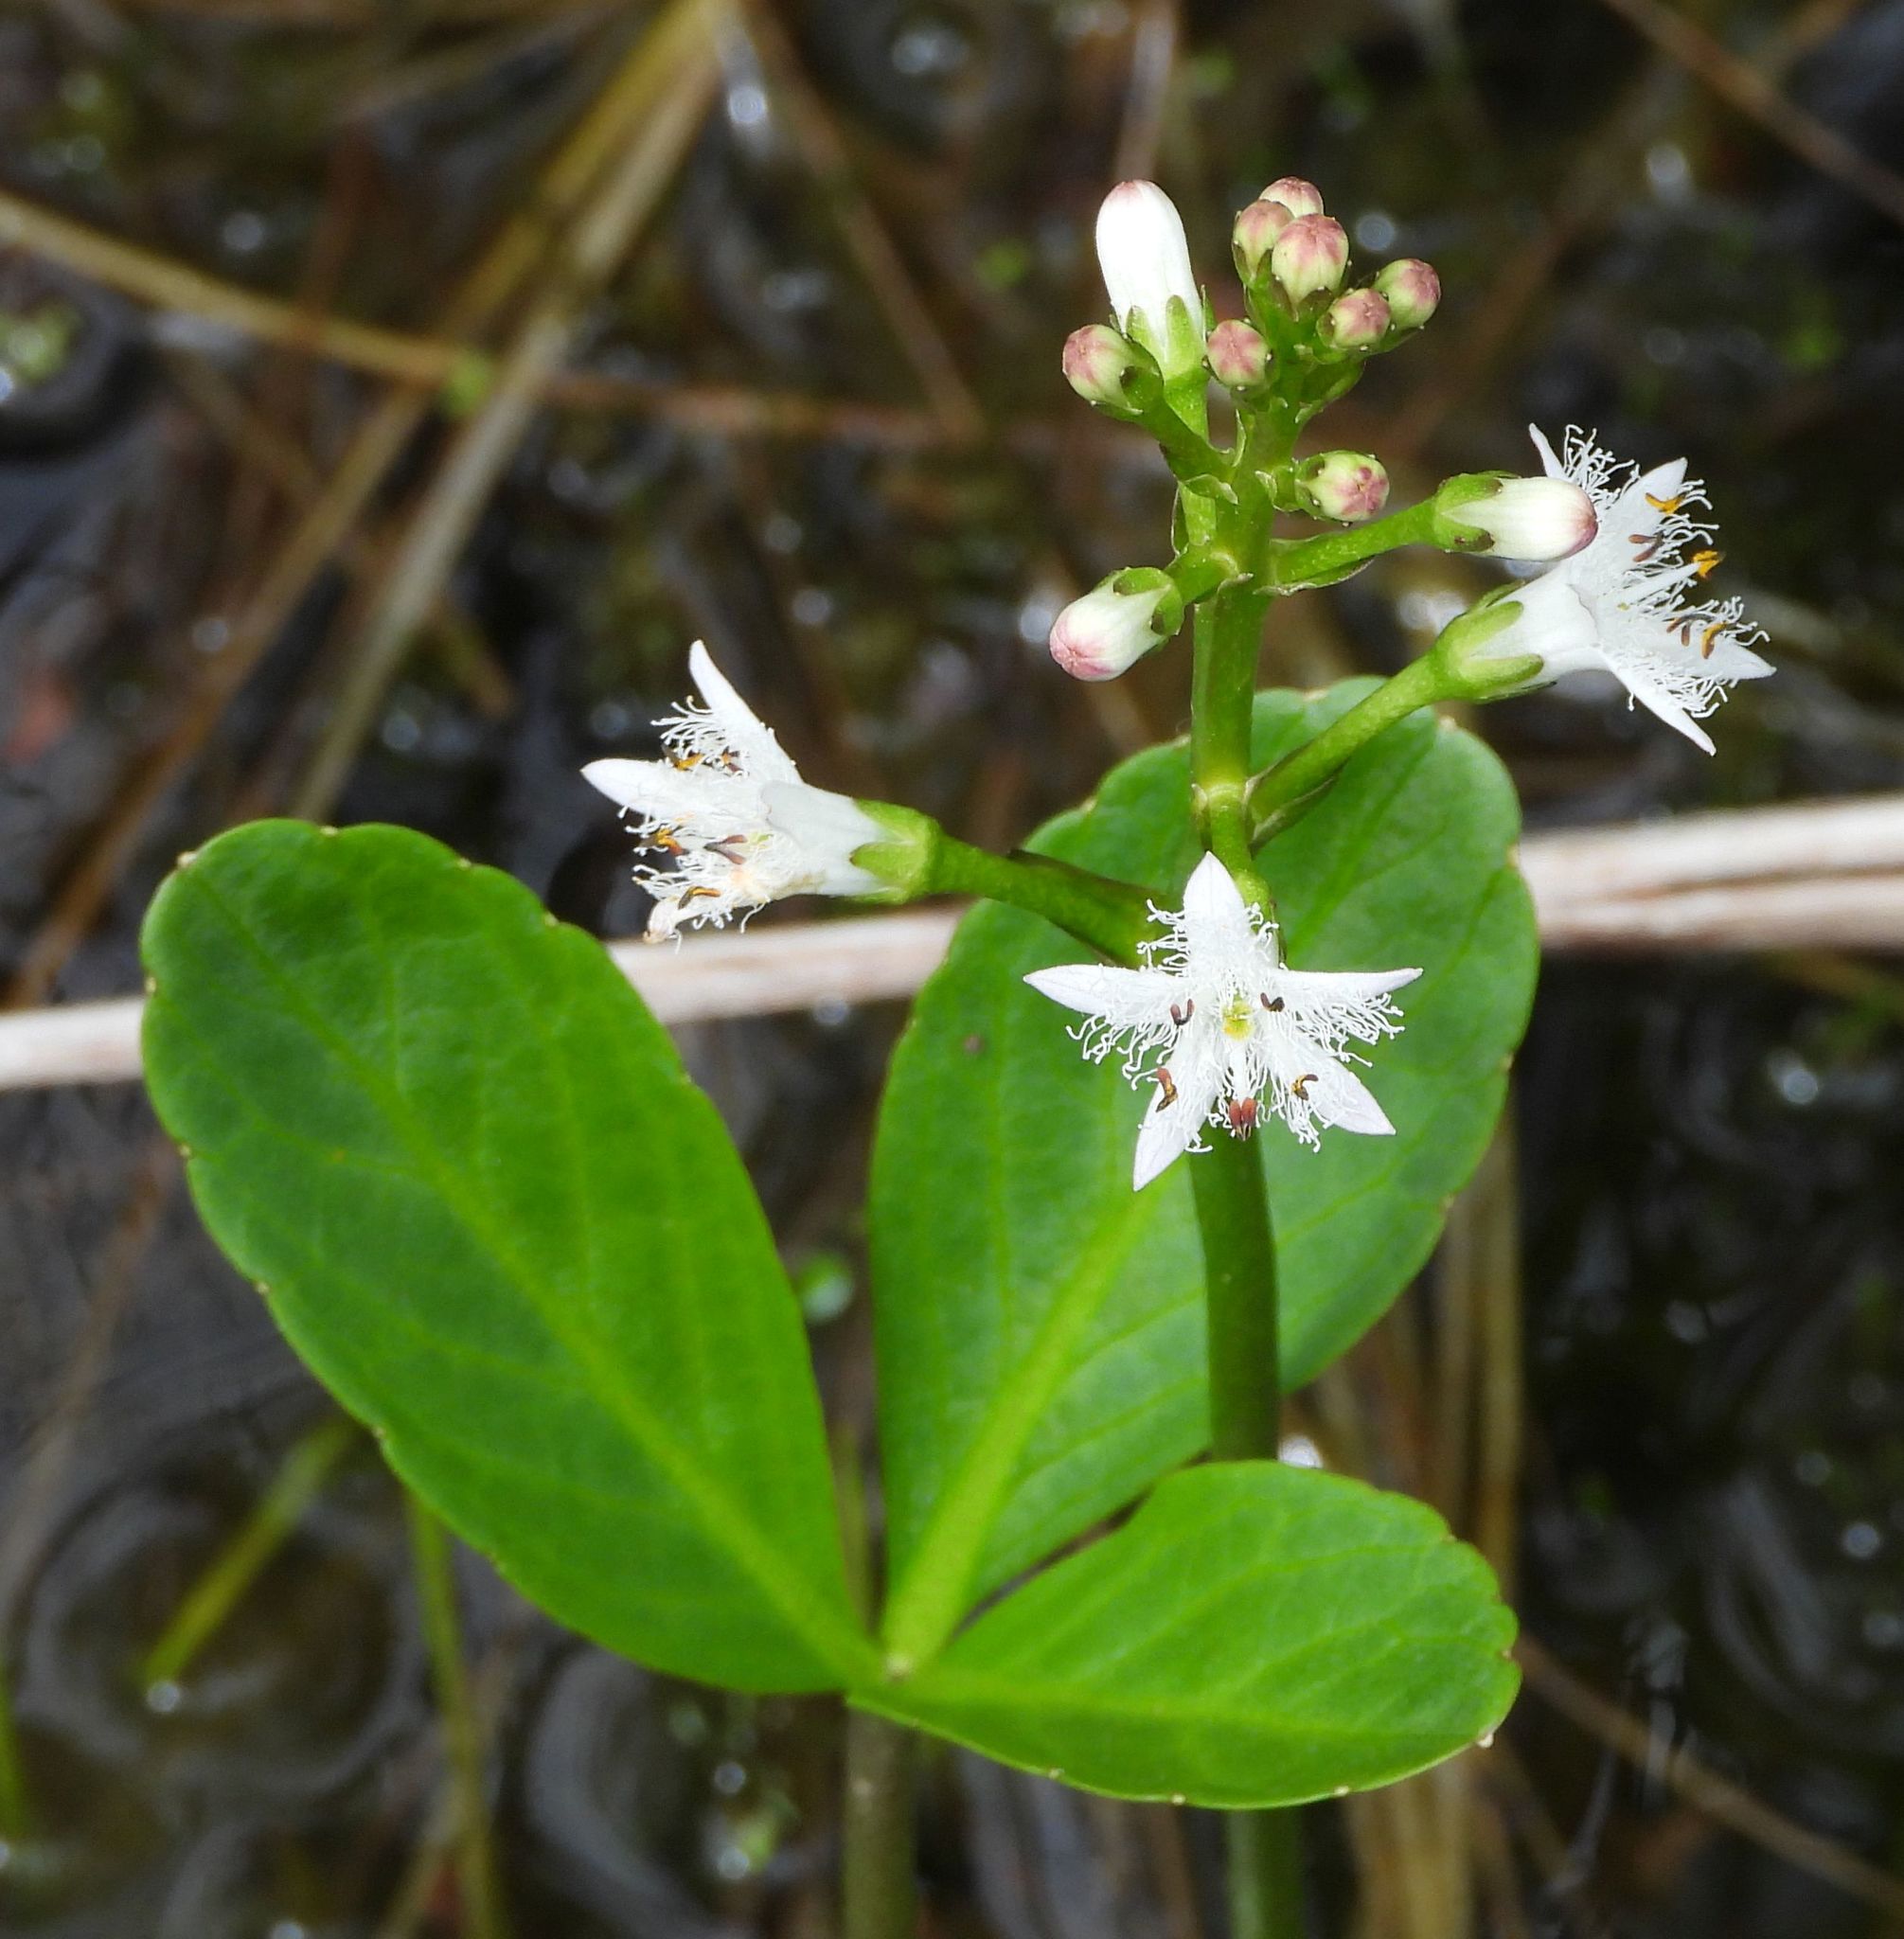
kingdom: Plantae
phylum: Tracheophyta
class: Magnoliopsida
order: Asterales
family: Menyanthaceae
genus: Menyanthes
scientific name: Menyanthes trifoliata
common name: Bogbean
